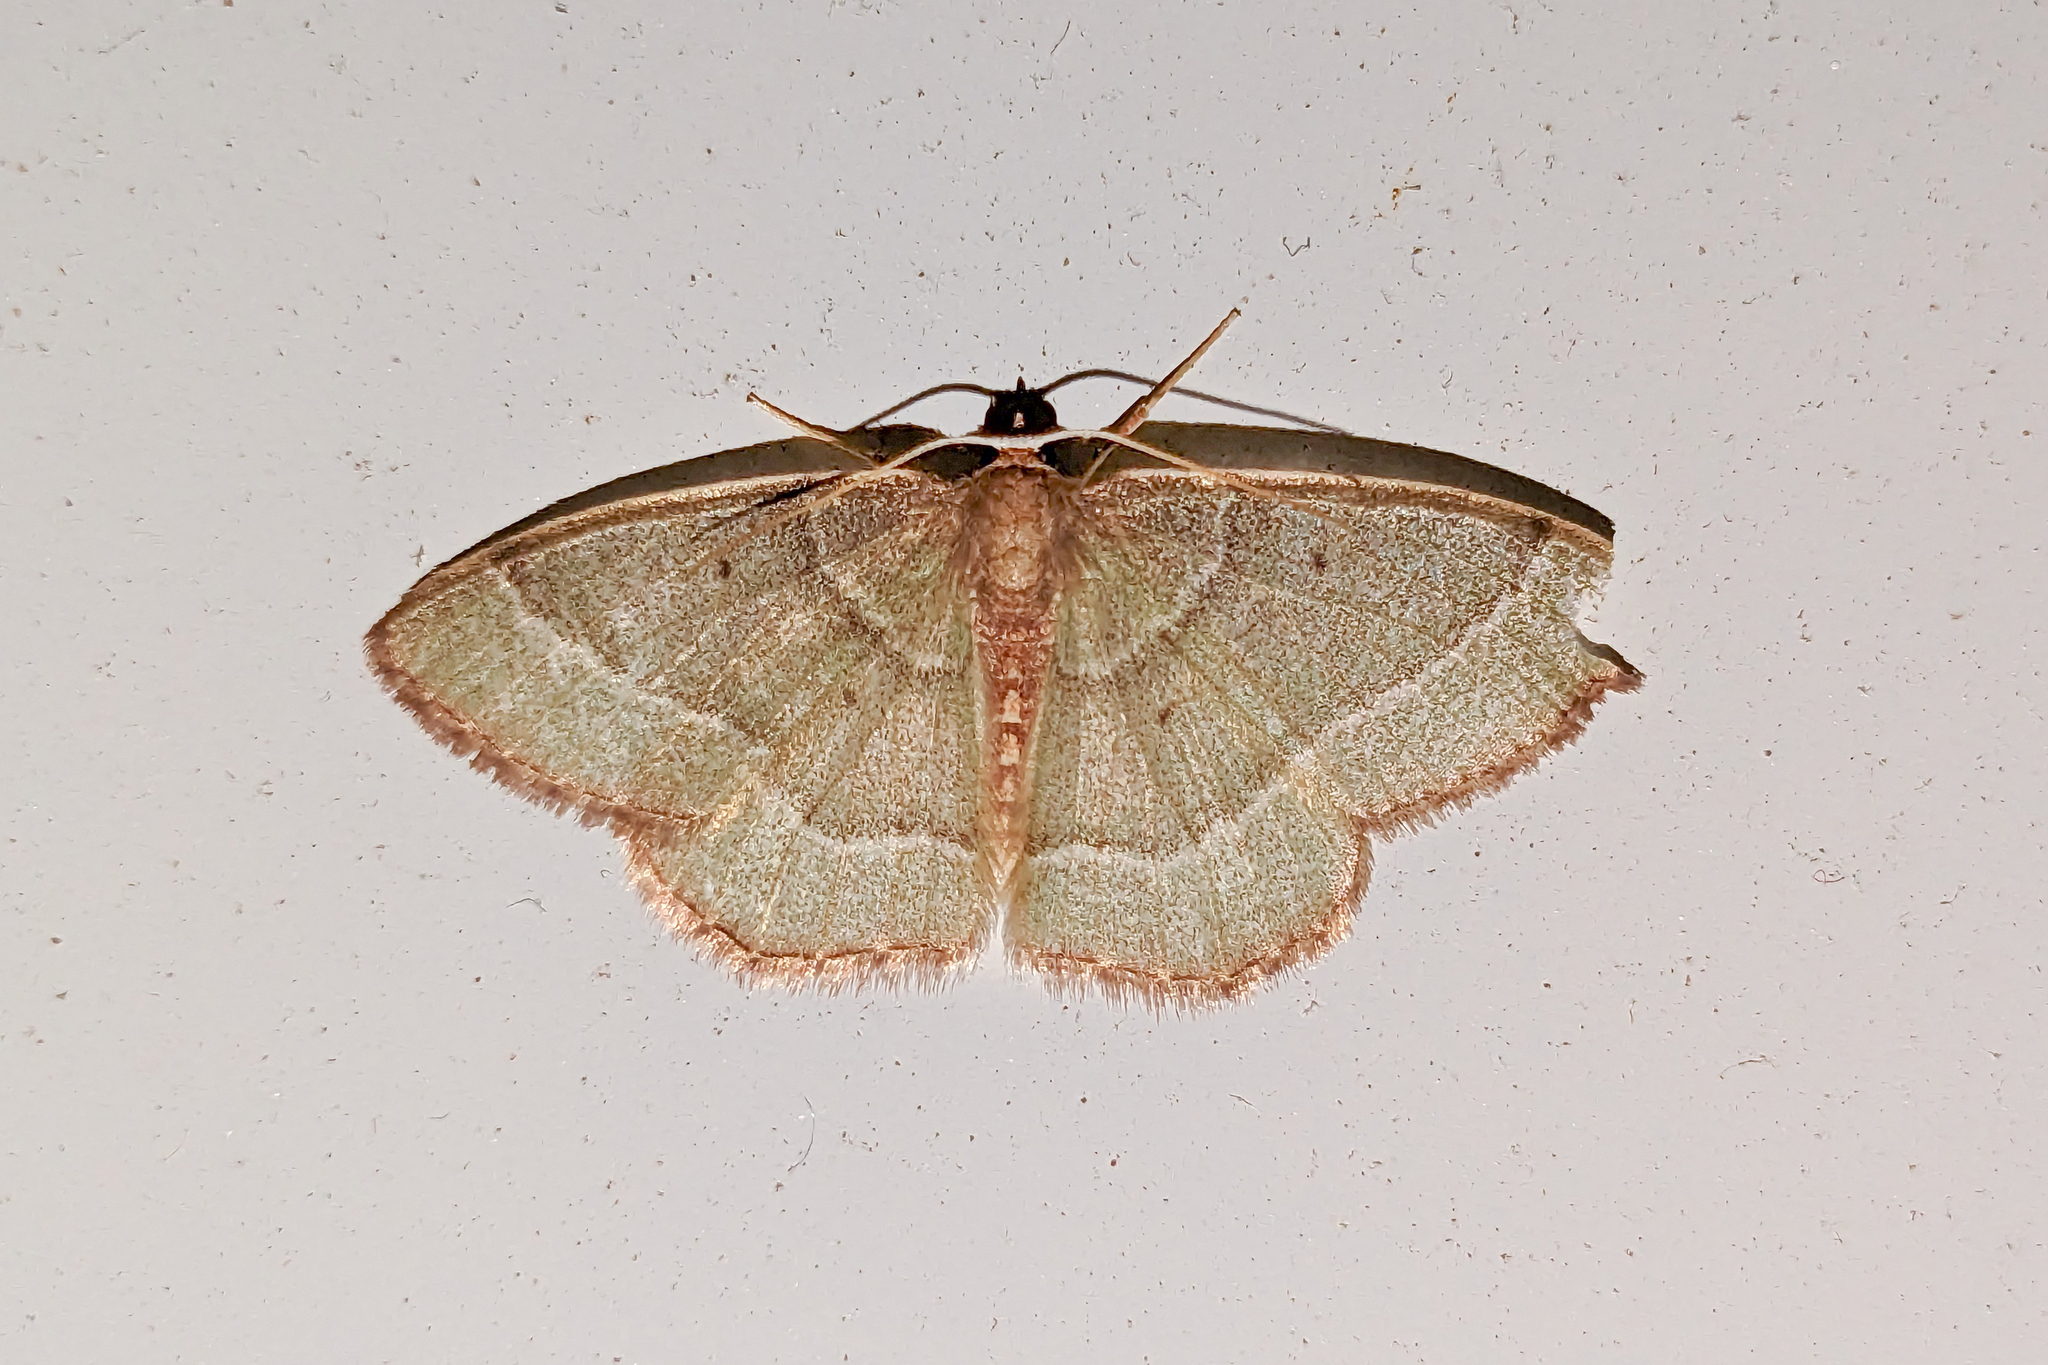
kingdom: Animalia
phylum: Arthropoda
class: Insecta
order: Lepidoptera
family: Geometridae
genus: Nemoria
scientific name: Nemoria bistriaria
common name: Red-fringed emerald
